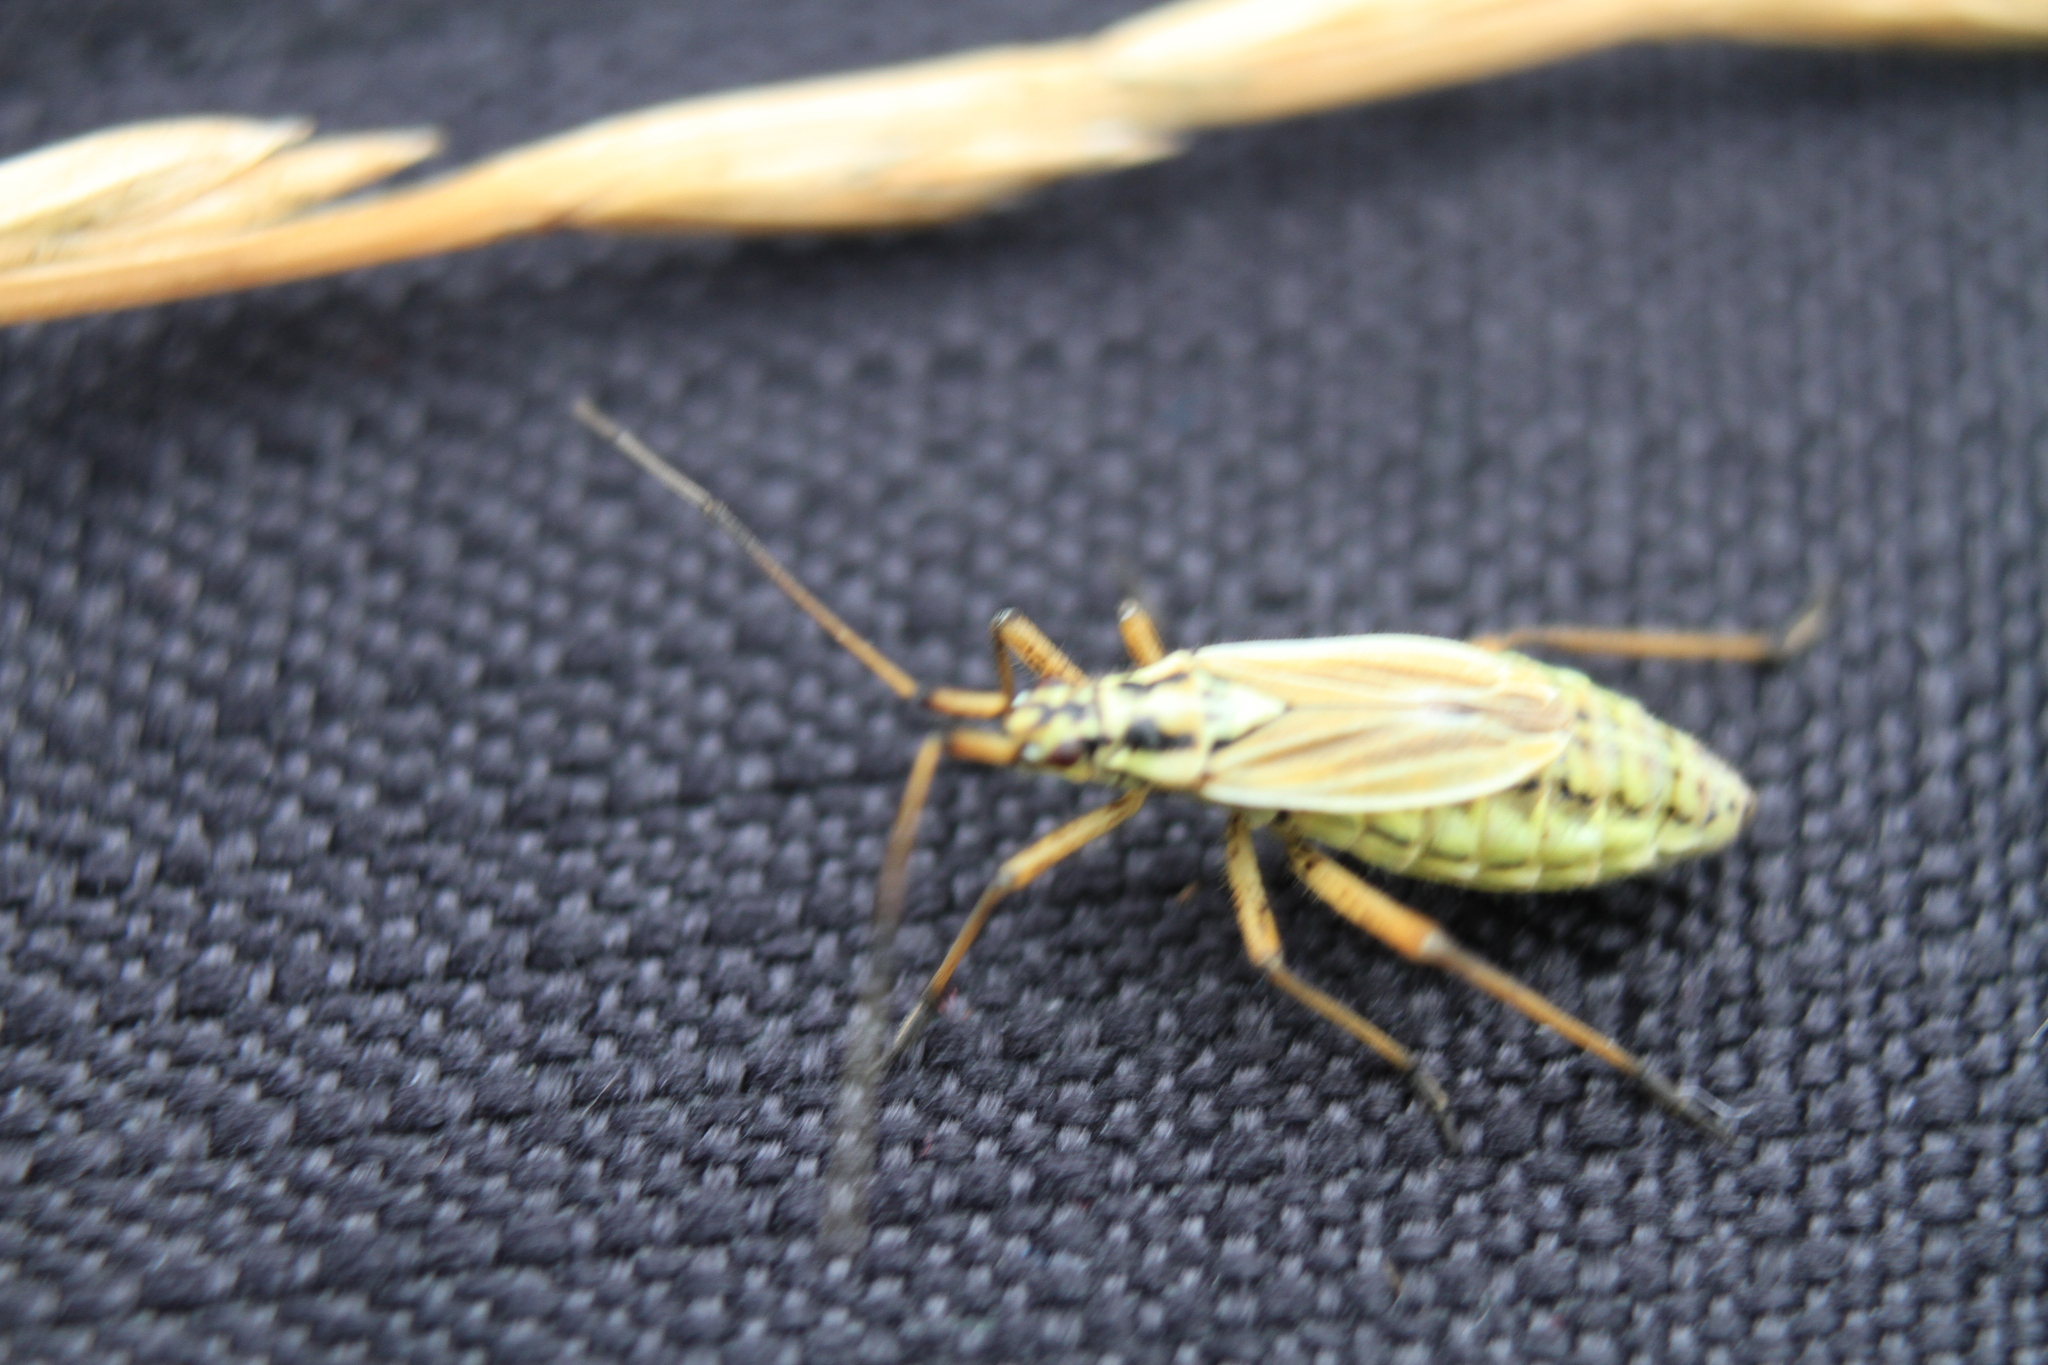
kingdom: Animalia
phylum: Arthropoda
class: Insecta
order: Hemiptera
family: Miridae
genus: Leptopterna
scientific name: Leptopterna dolabrata
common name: Meadow plant bug
